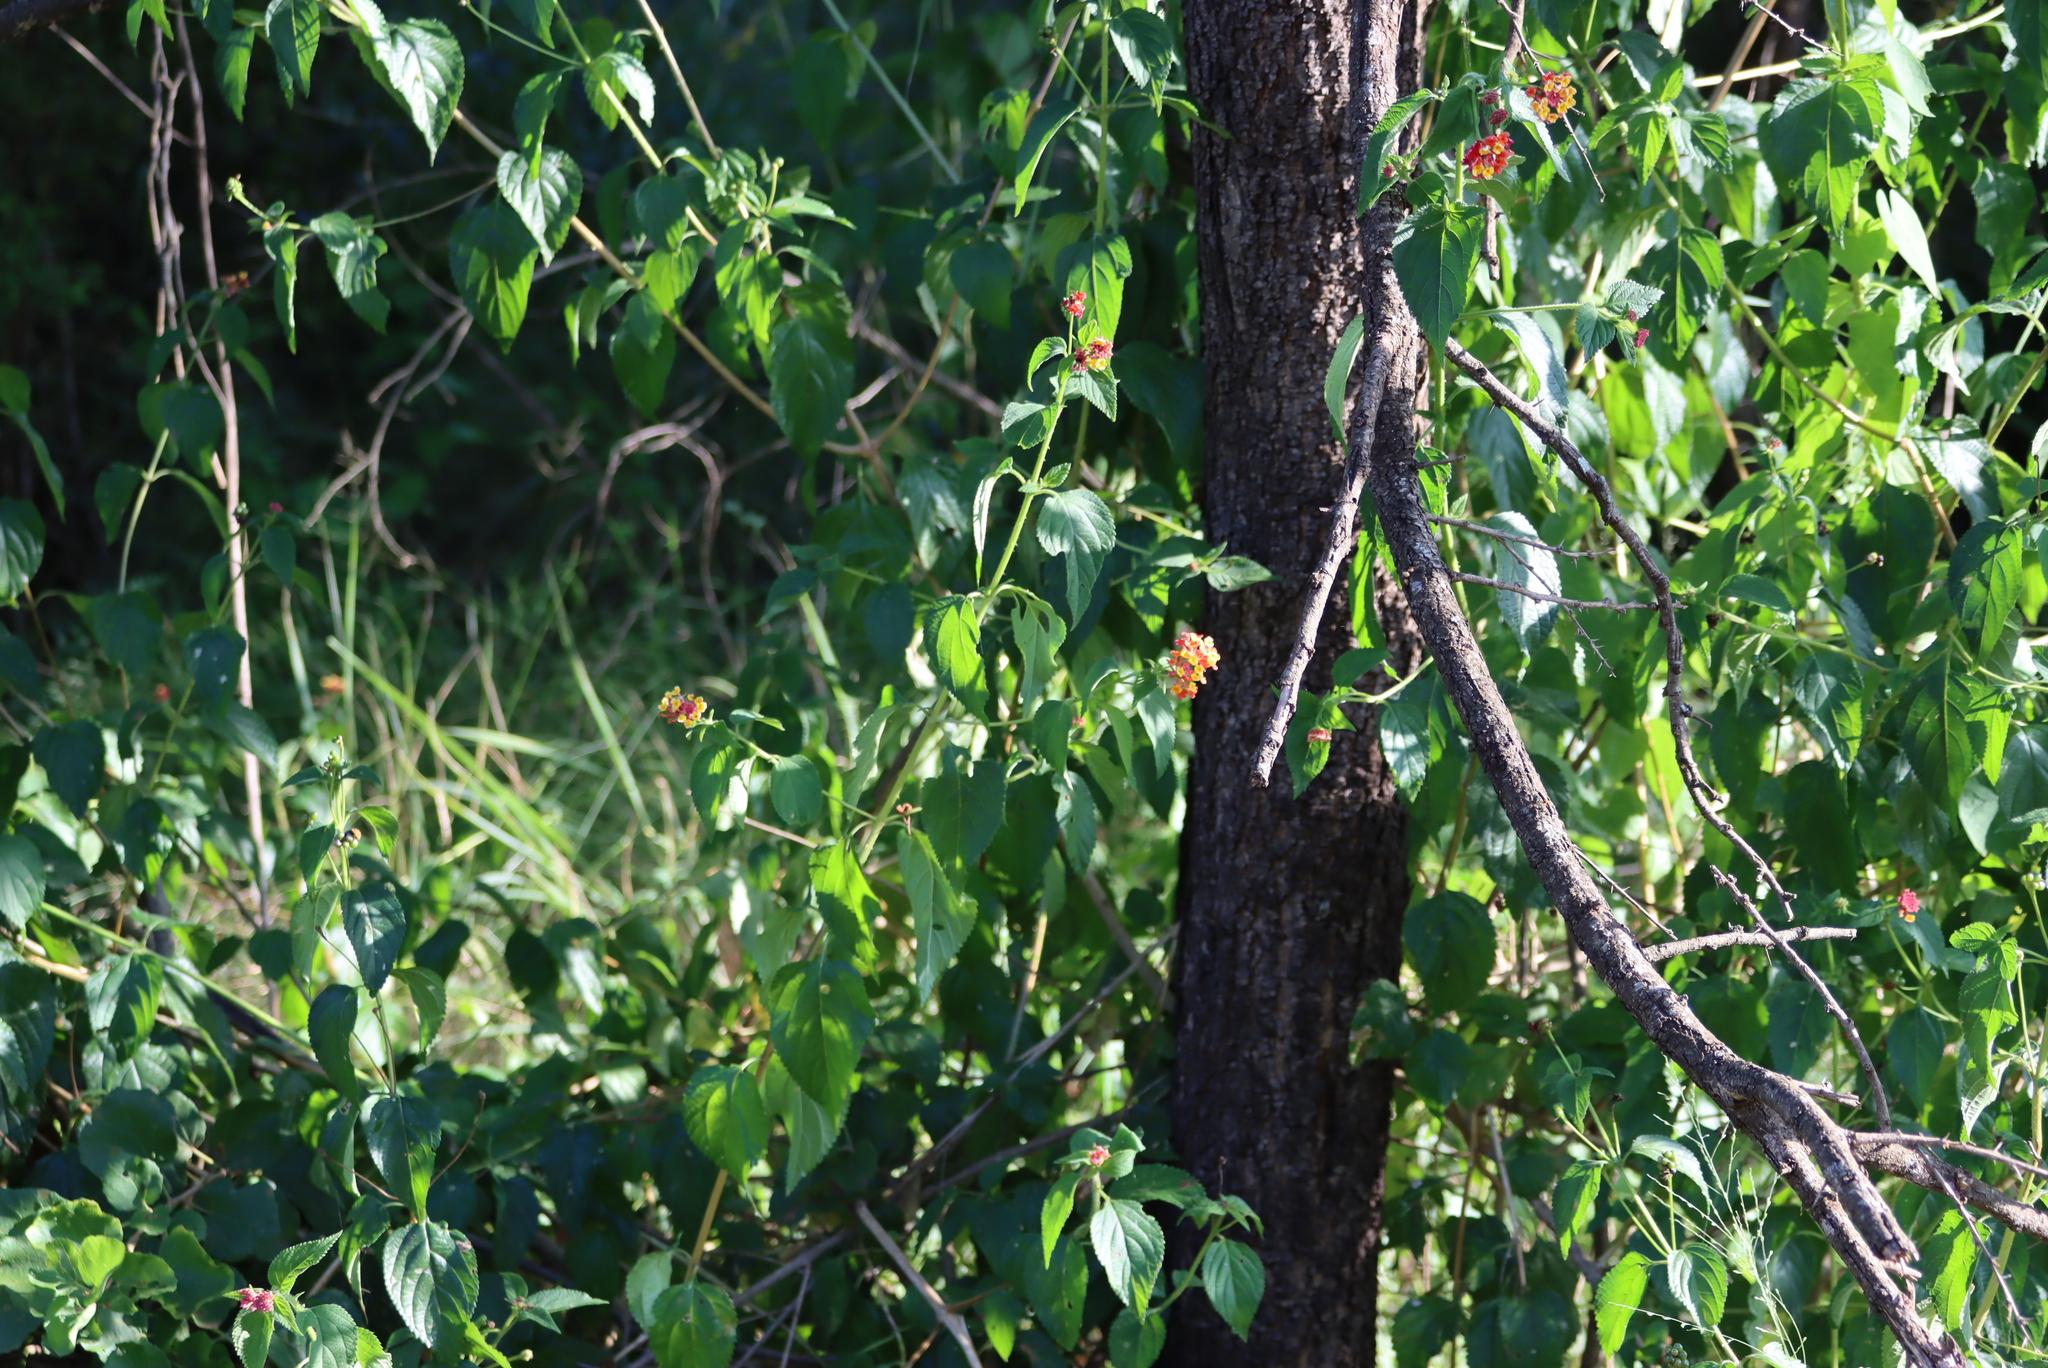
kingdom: Plantae
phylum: Tracheophyta
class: Magnoliopsida
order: Lamiales
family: Verbenaceae
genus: Lantana
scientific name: Lantana camara
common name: Lantana
